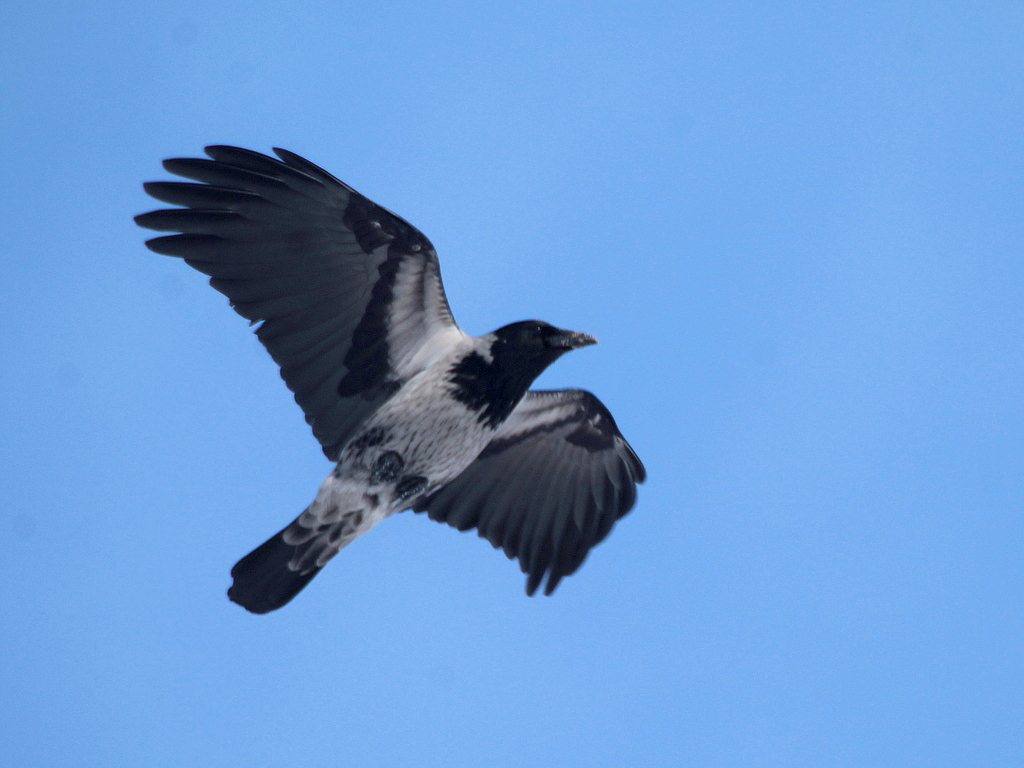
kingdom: Animalia
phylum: Chordata
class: Aves
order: Passeriformes
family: Corvidae
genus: Corvus
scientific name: Corvus
